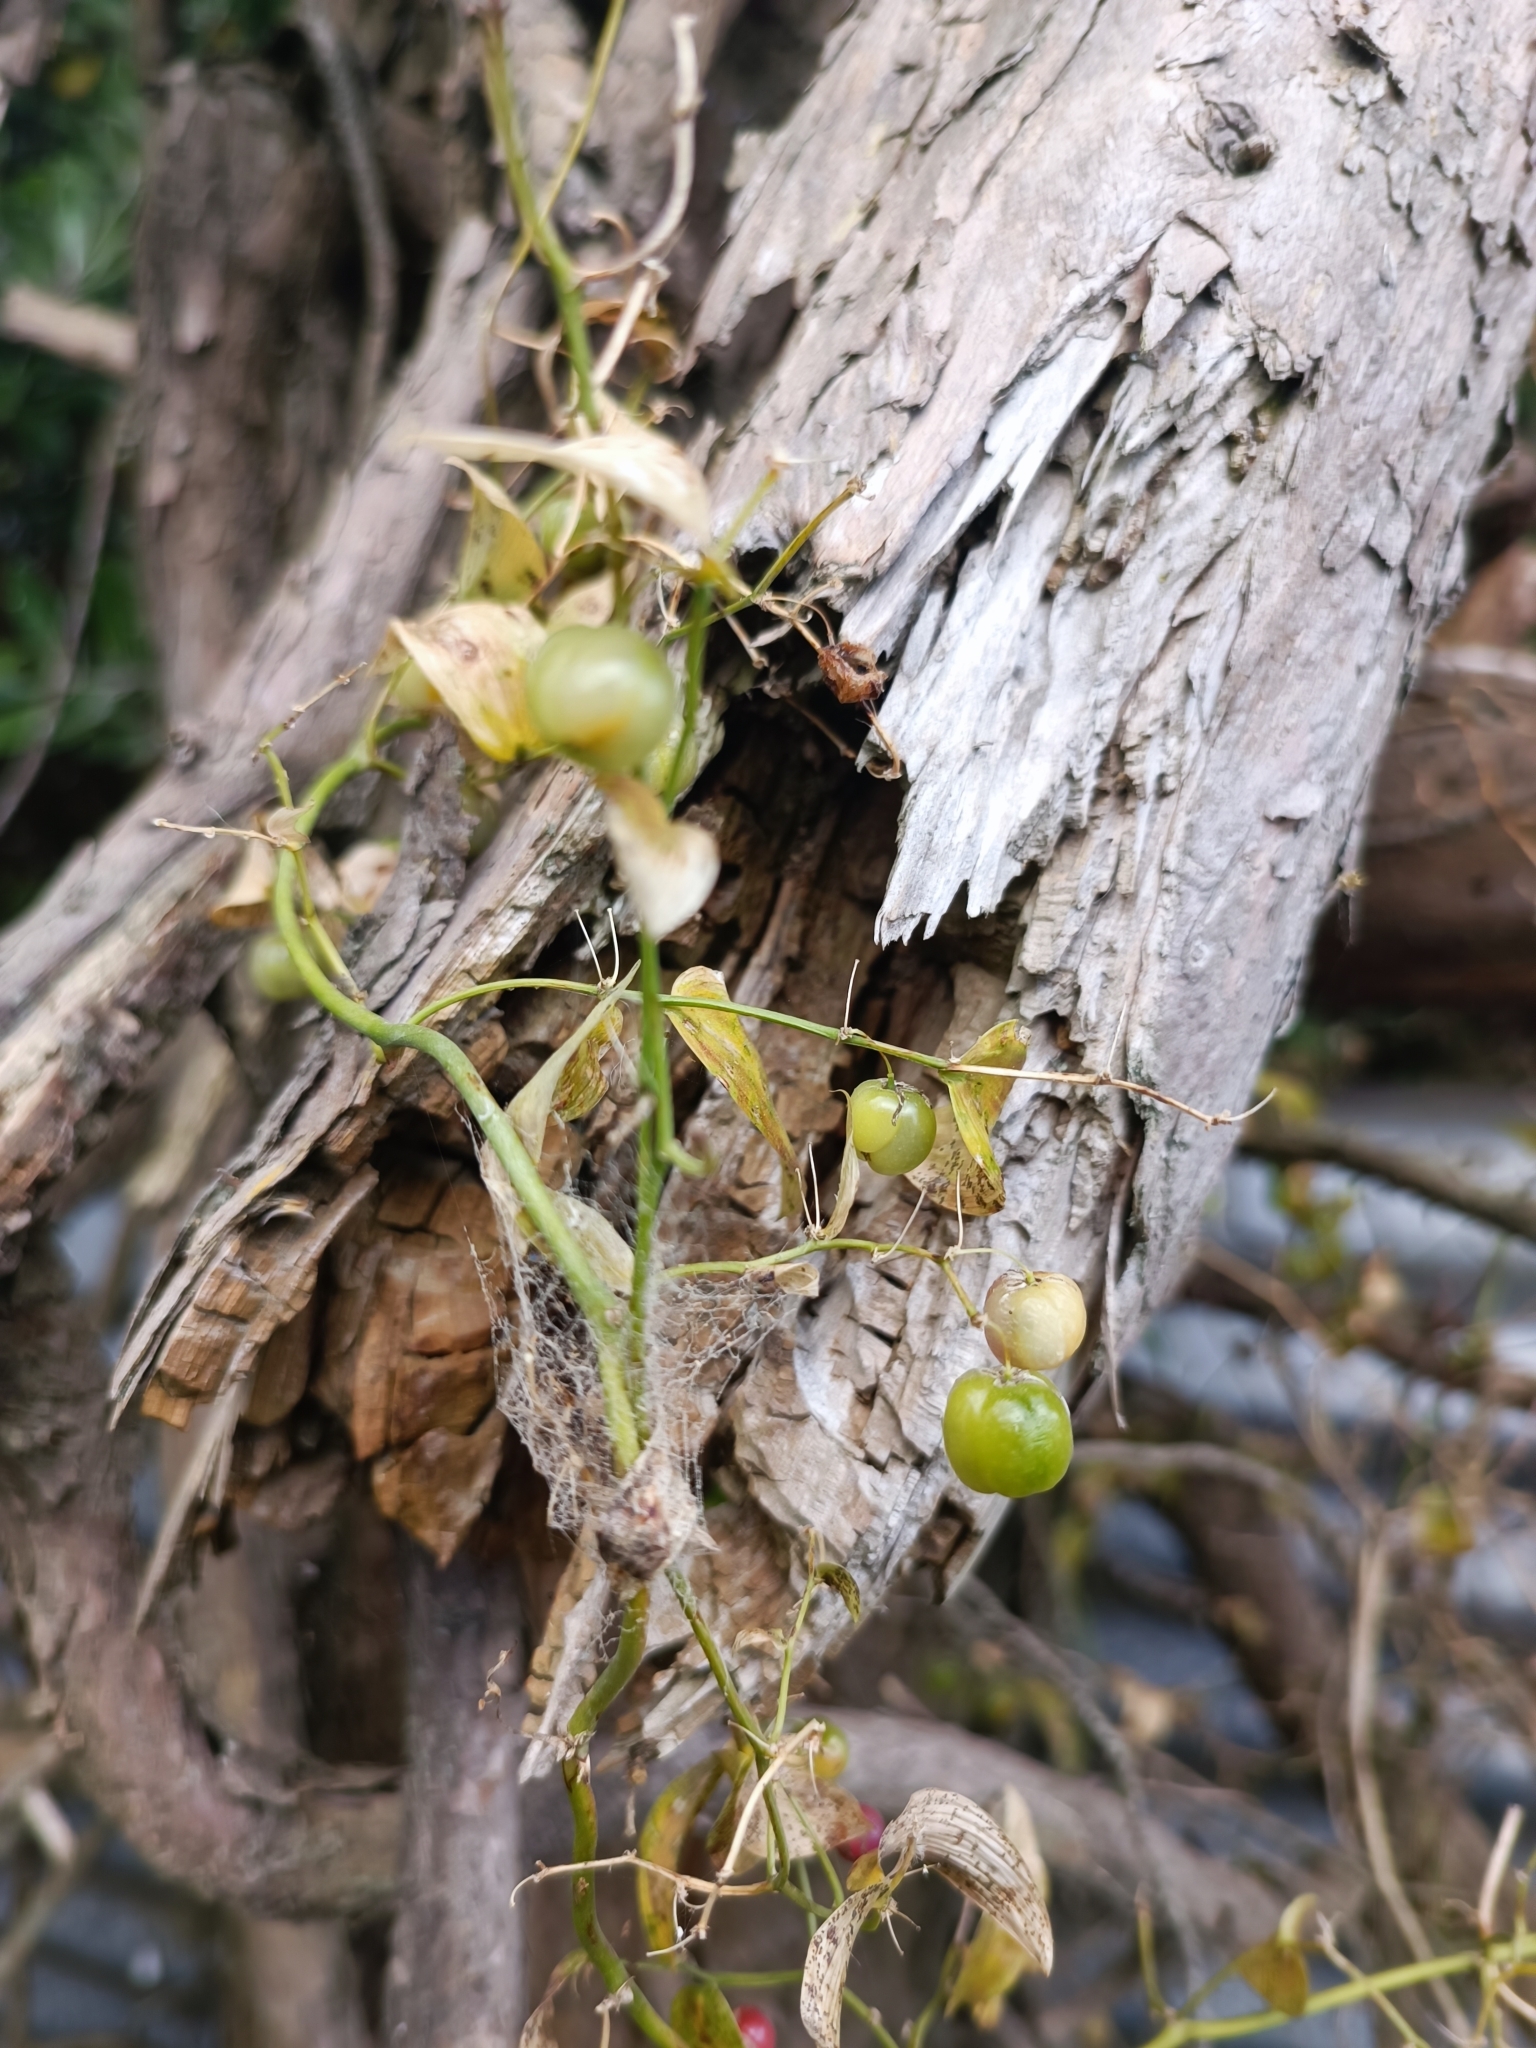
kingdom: Plantae
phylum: Tracheophyta
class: Liliopsida
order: Asparagales
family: Asparagaceae
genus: Asparagus
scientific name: Asparagus asparagoides
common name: African asparagus fern
